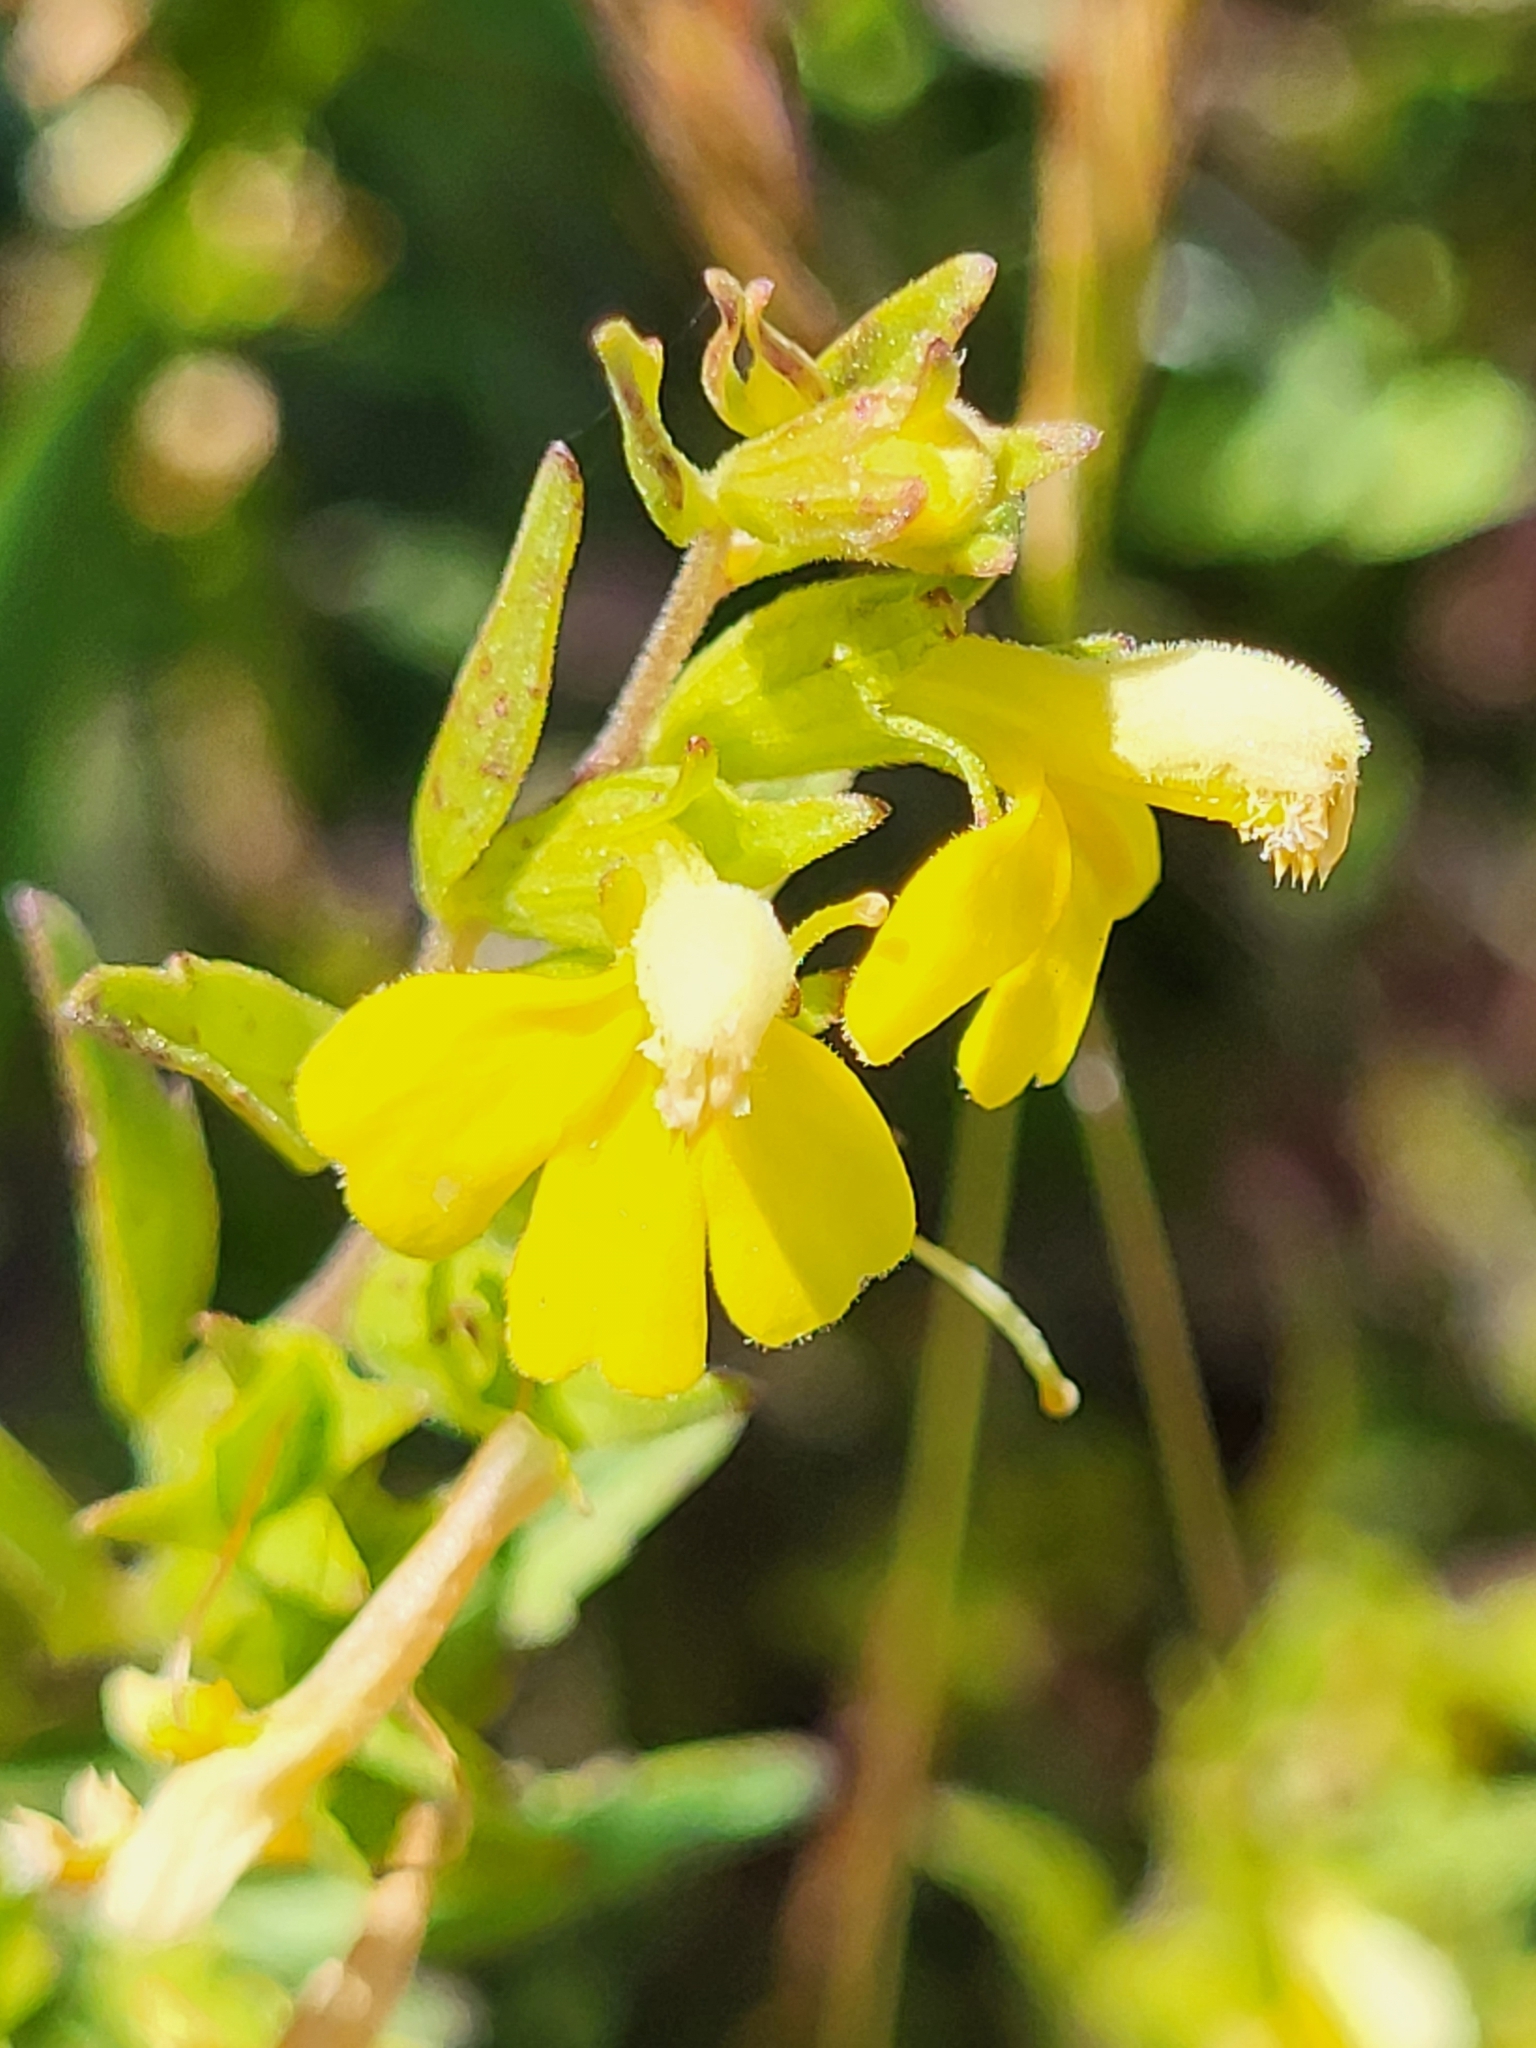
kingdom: Plantae
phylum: Tracheophyta
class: Magnoliopsida
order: Lamiales
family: Orobanchaceae
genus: Odontites
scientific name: Odontites hollianus
